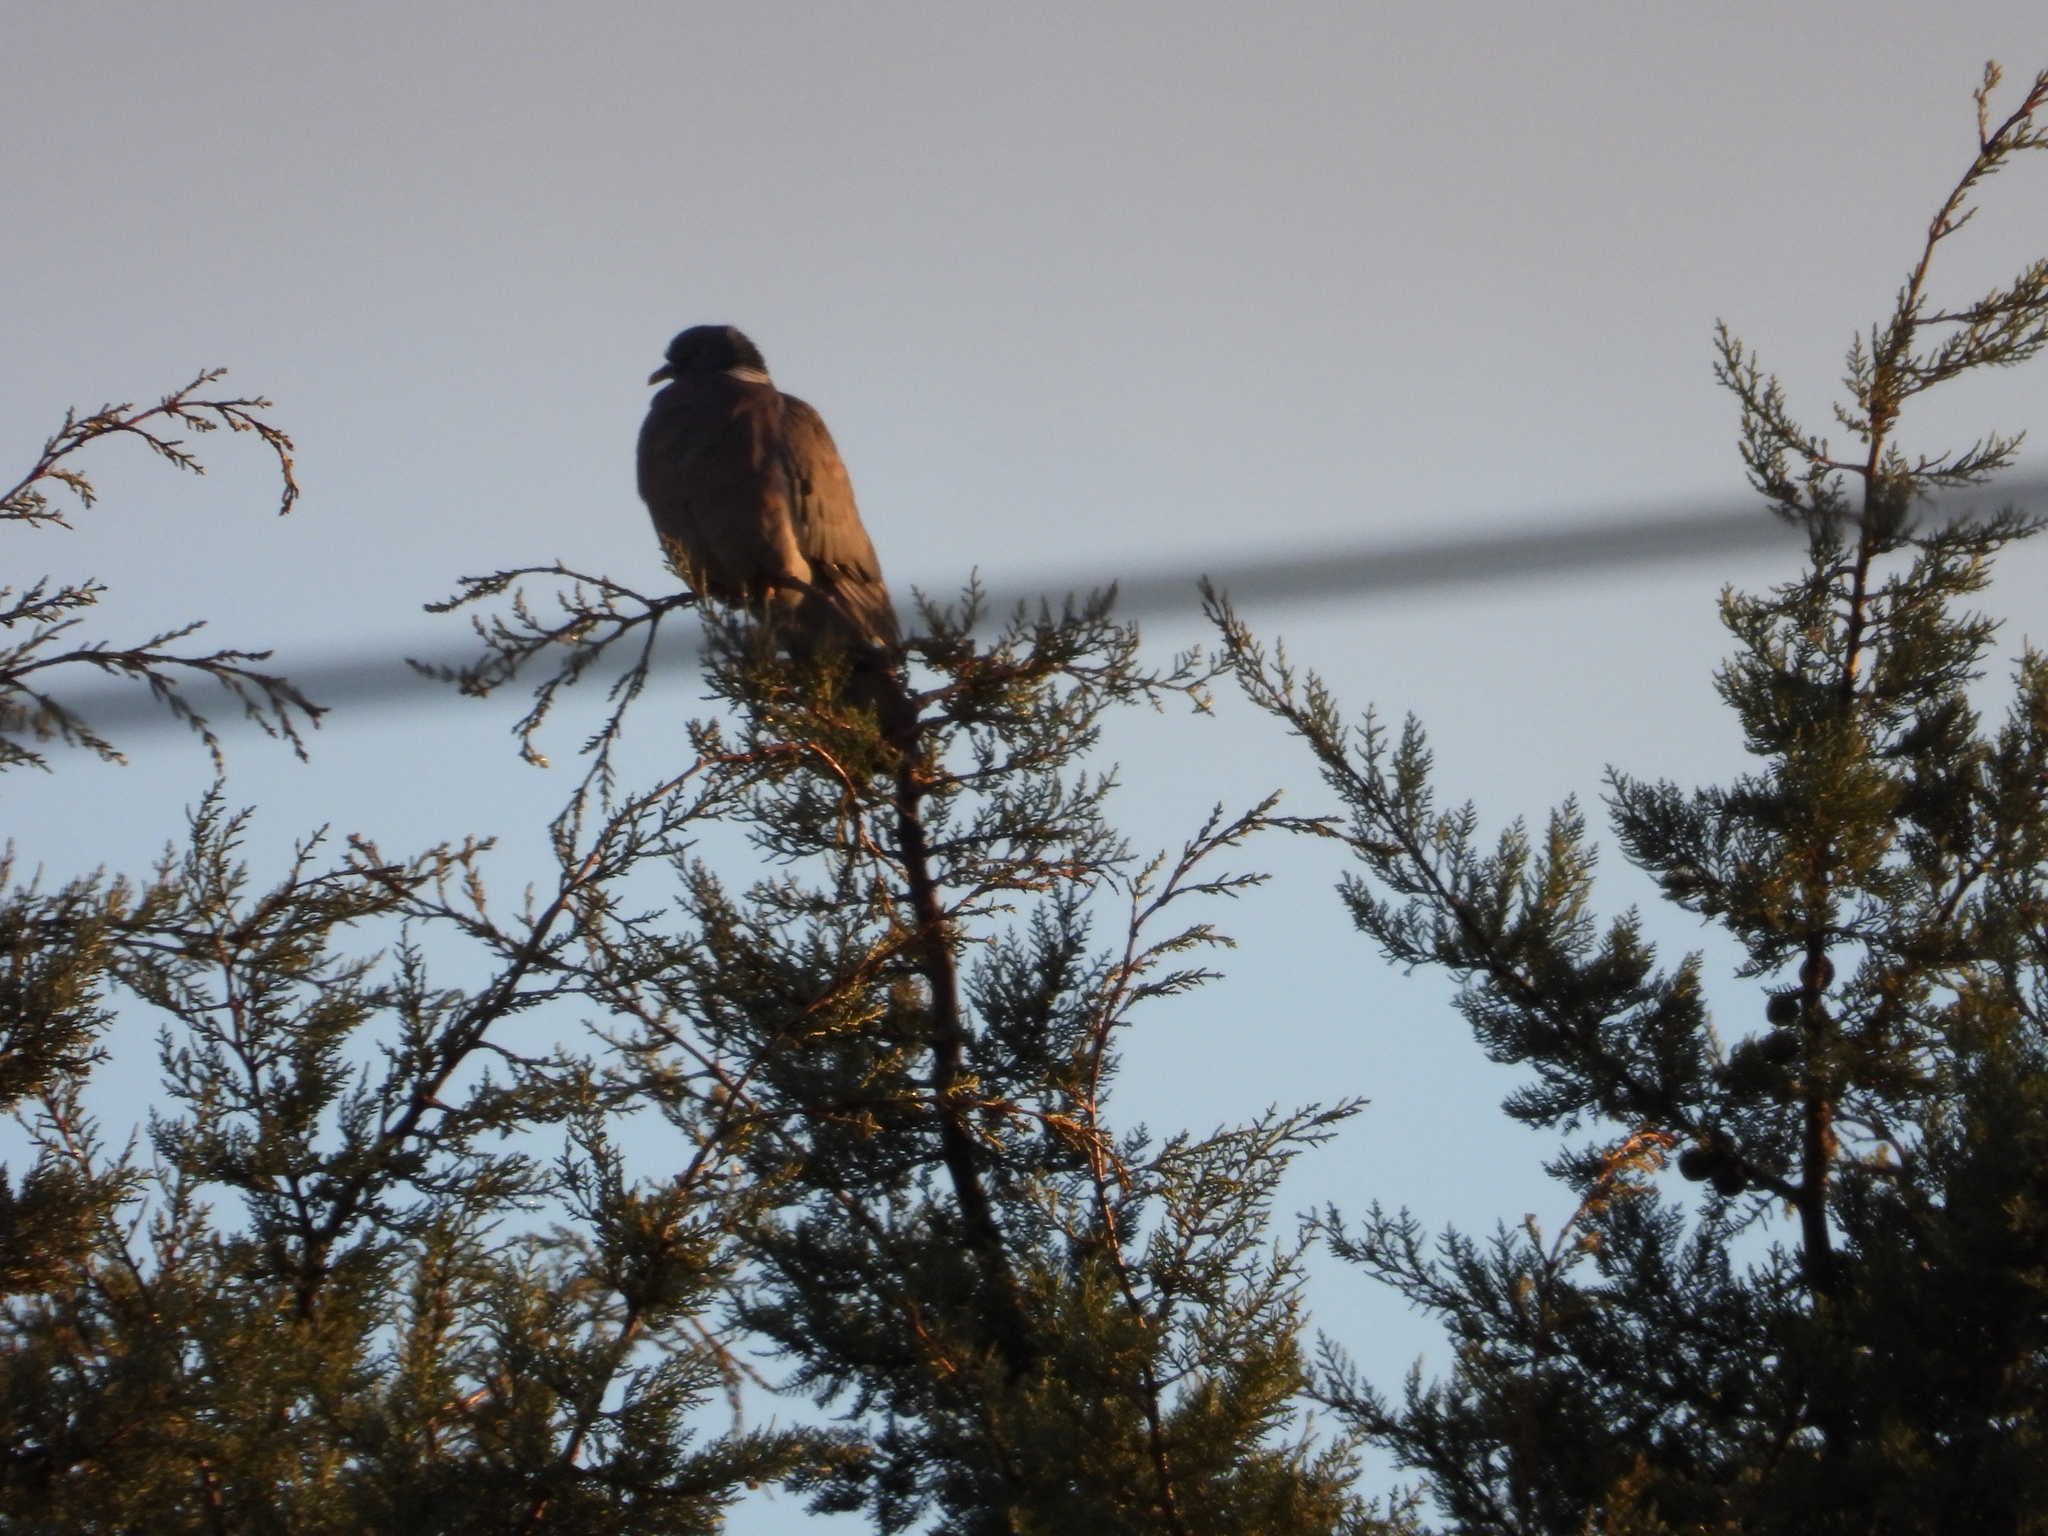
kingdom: Animalia
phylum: Chordata
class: Aves
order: Columbiformes
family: Columbidae
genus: Columba
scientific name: Columba palumbus
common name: Common wood pigeon
